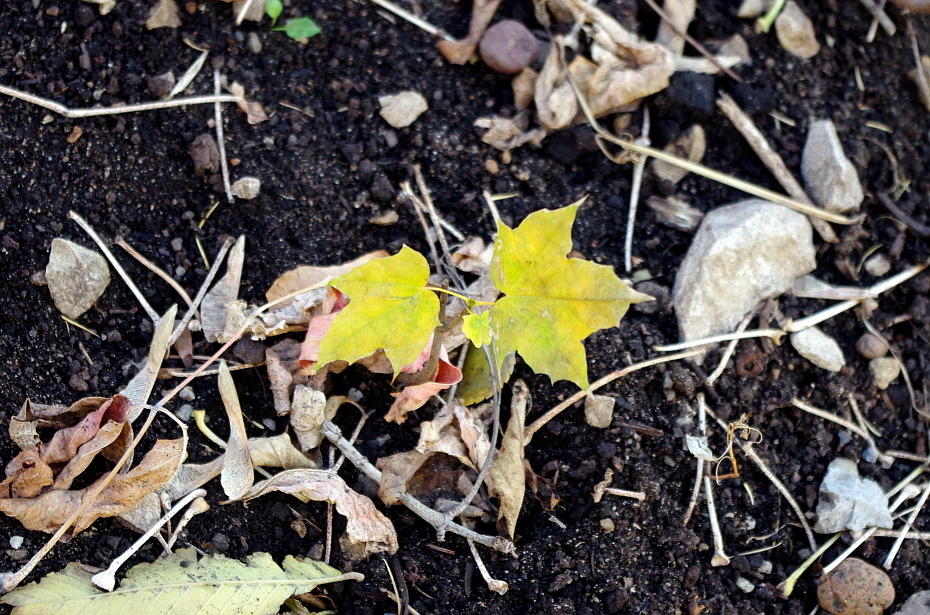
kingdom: Plantae
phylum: Tracheophyta
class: Magnoliopsida
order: Sapindales
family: Sapindaceae
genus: Acer
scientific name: Acer platanoides
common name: Norway maple
